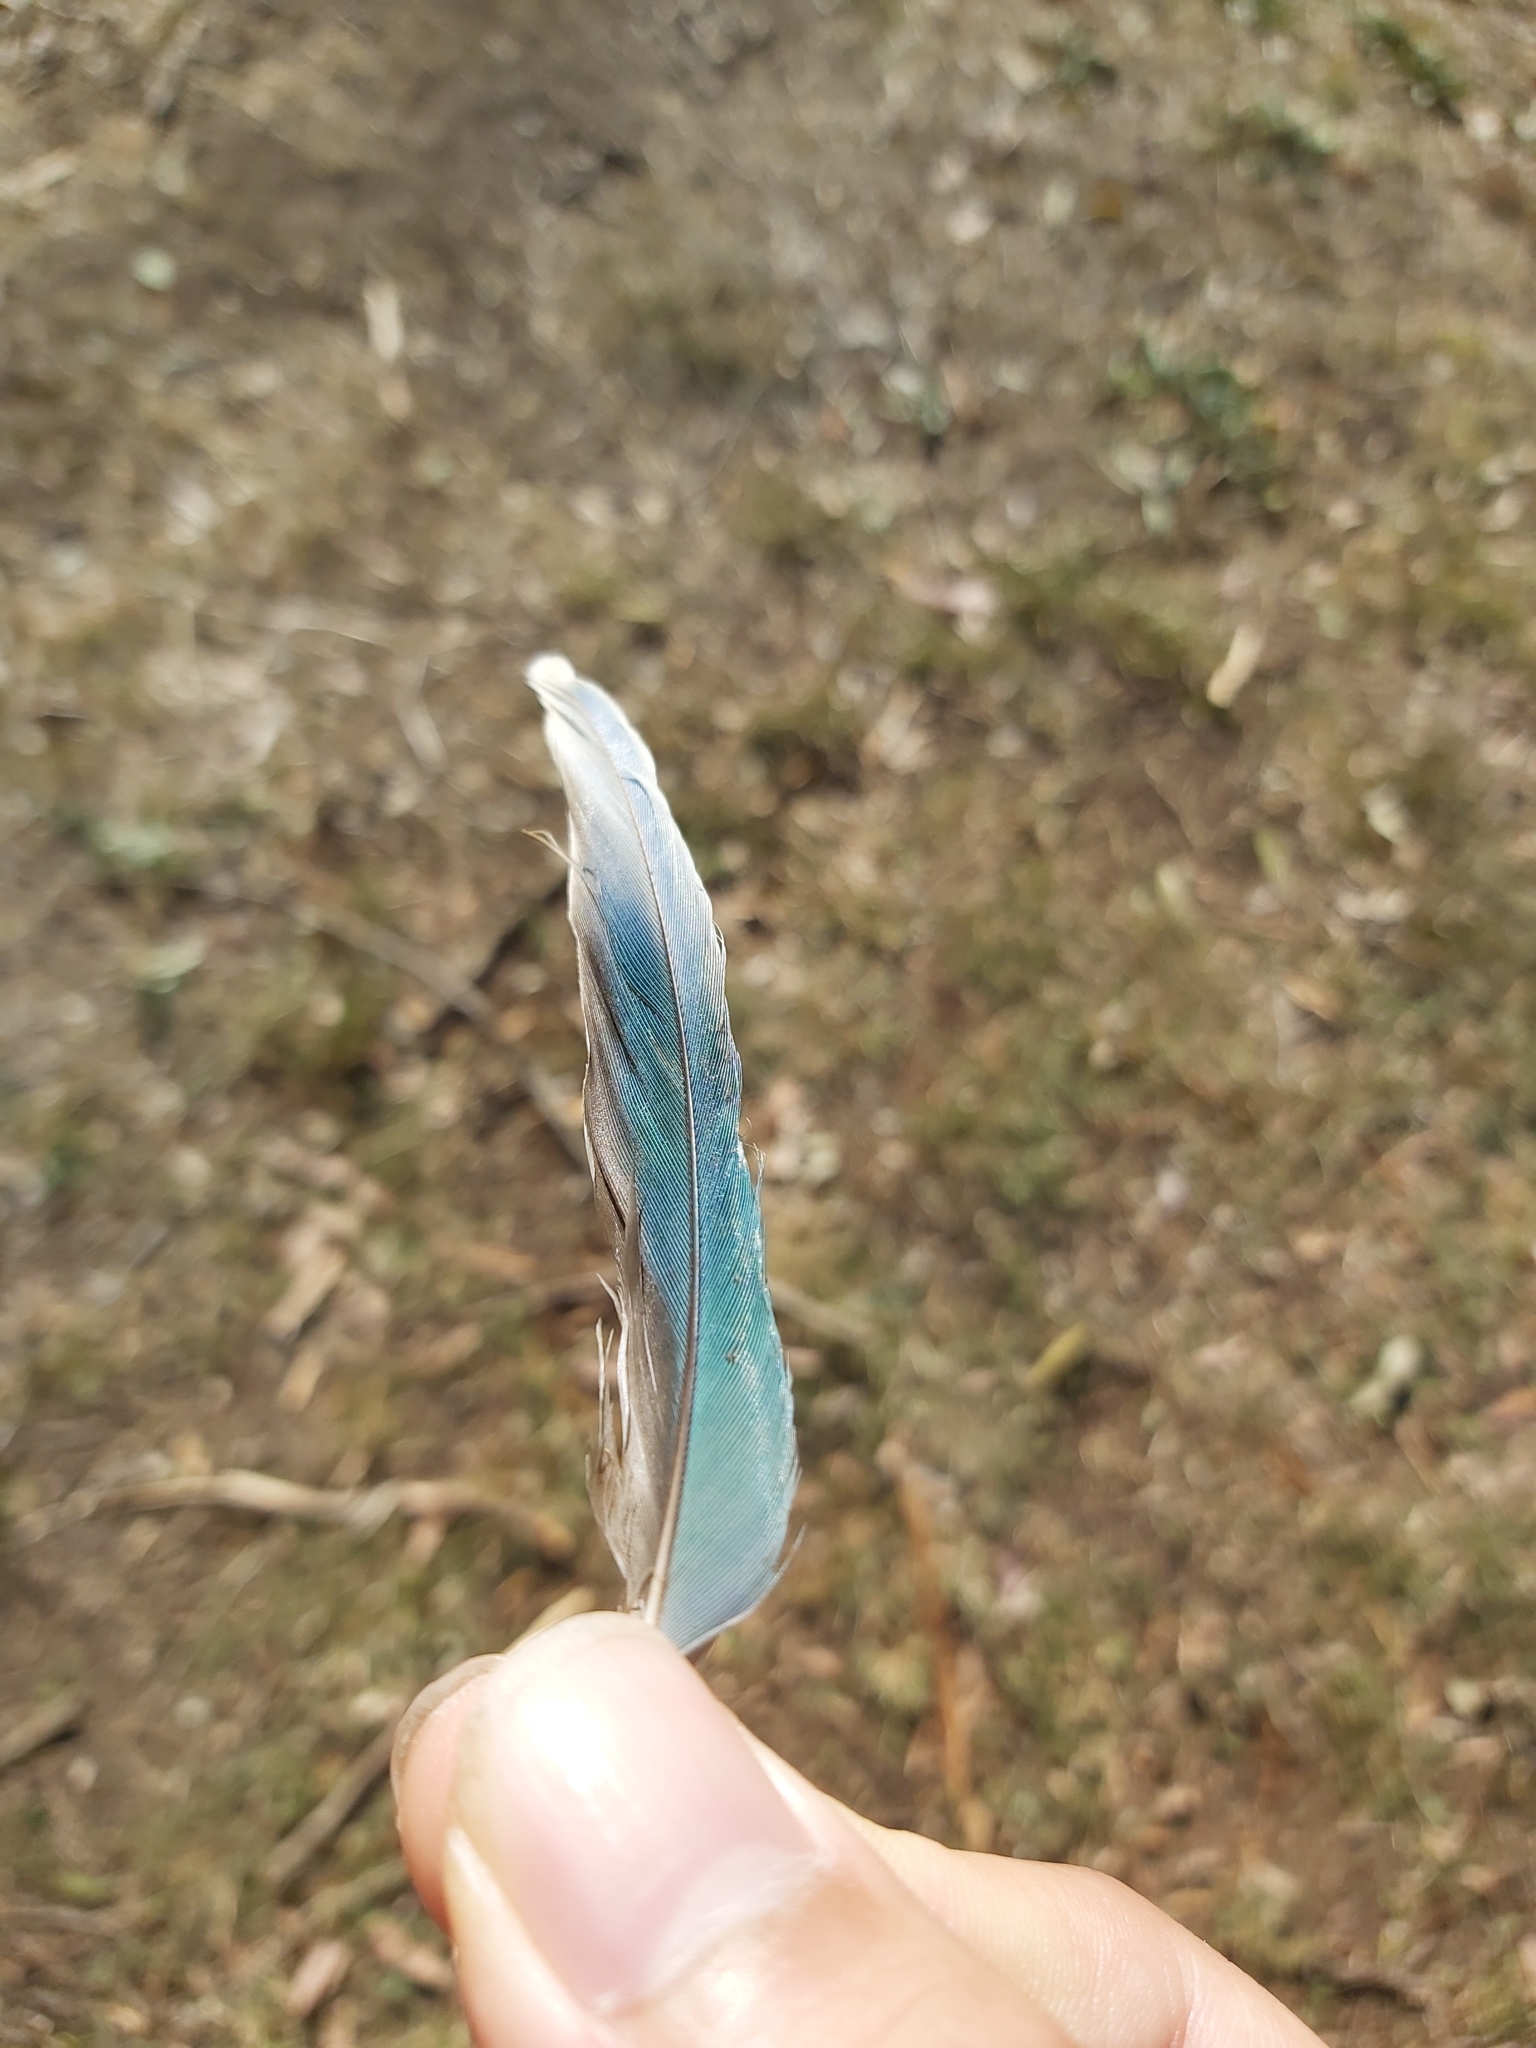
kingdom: Animalia
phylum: Chordata
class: Aves
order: Psittaciformes
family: Psittacidae
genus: Psephotus
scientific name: Psephotus haematonotus
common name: Red-rumped parrot
